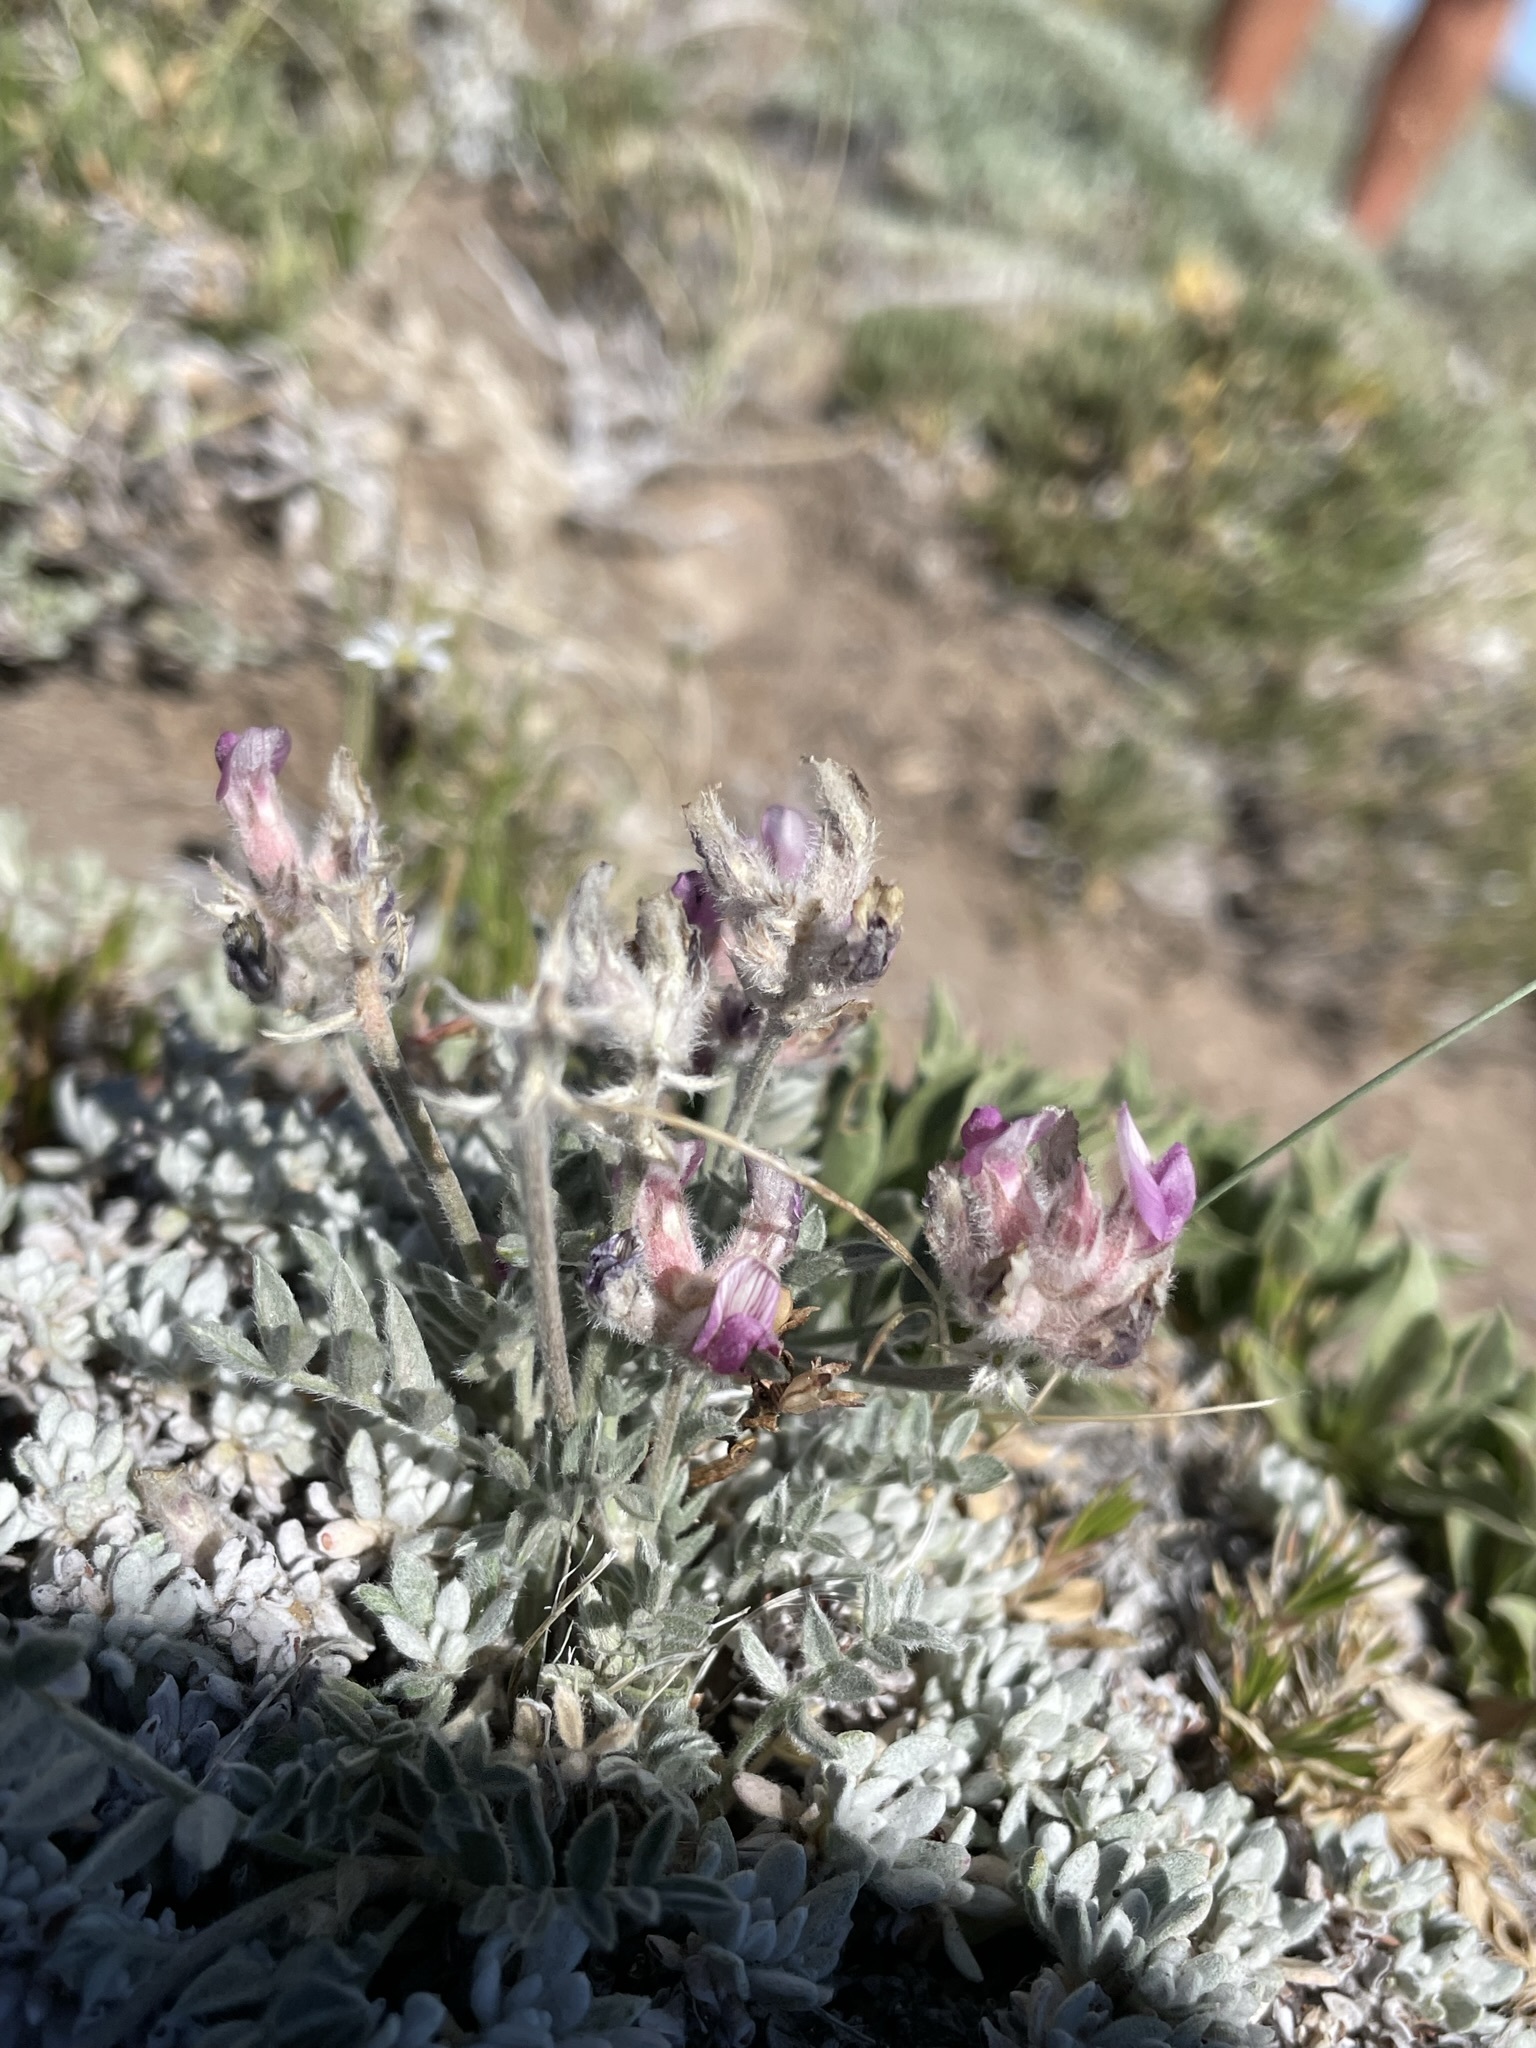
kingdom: Plantae
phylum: Tracheophyta
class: Magnoliopsida
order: Fabales
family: Fabaceae
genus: Astragalus
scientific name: Astragalus austiniae
